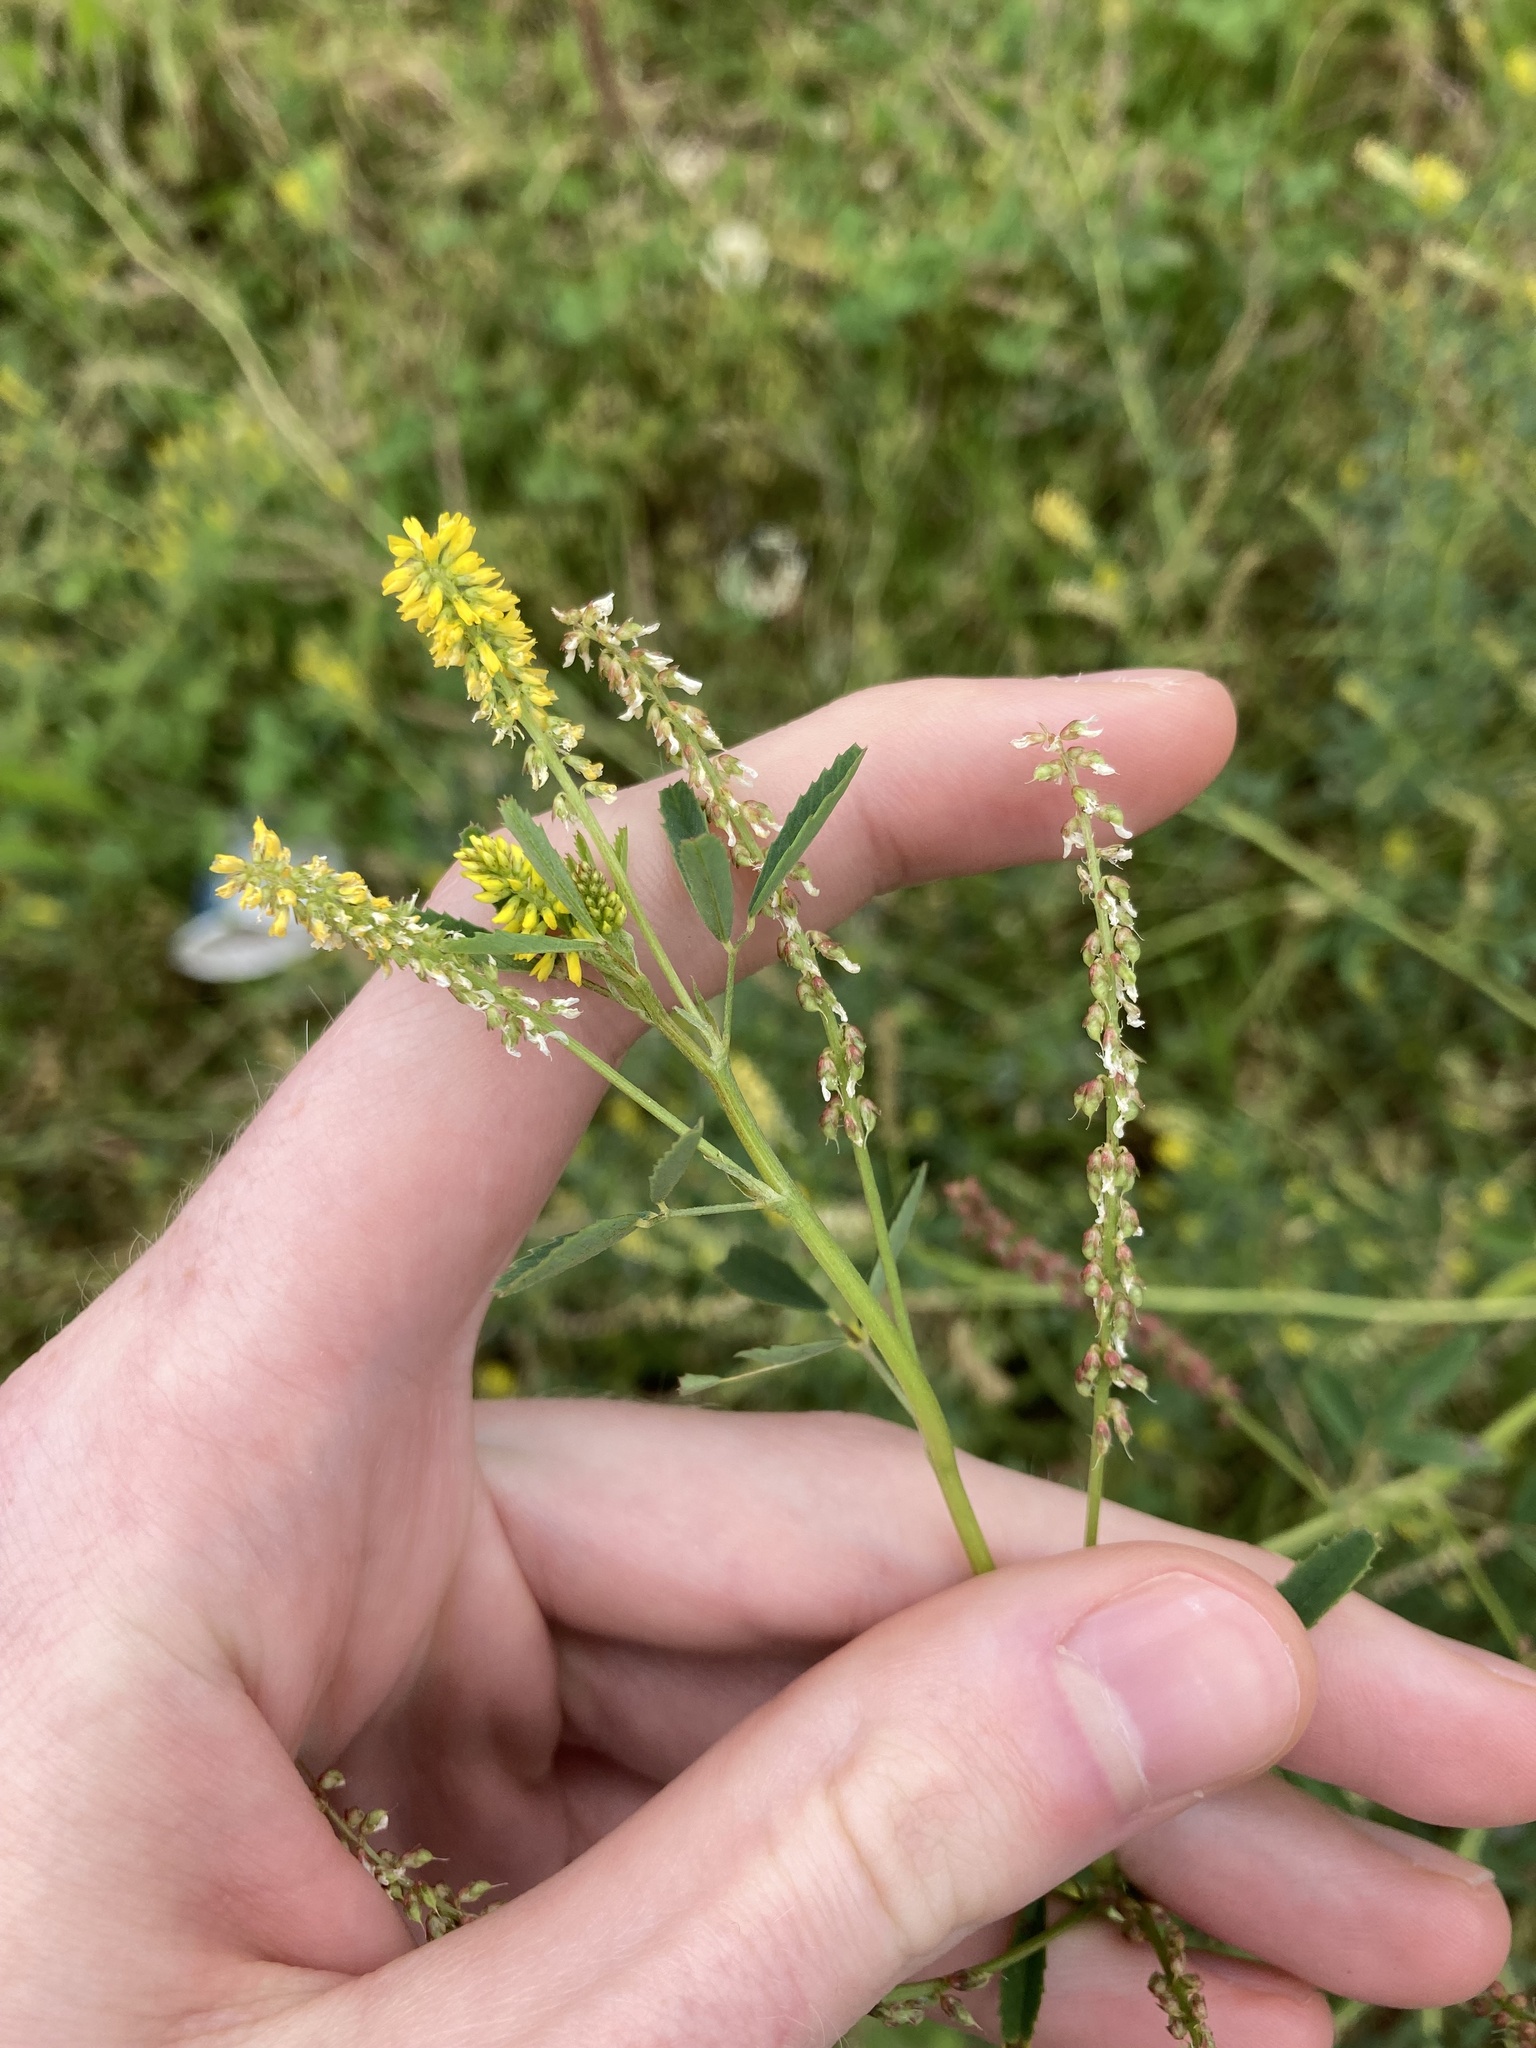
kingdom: Plantae
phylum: Tracheophyta
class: Magnoliopsida
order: Fabales
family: Fabaceae
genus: Melilotus
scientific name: Melilotus indicus
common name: Small melilot
